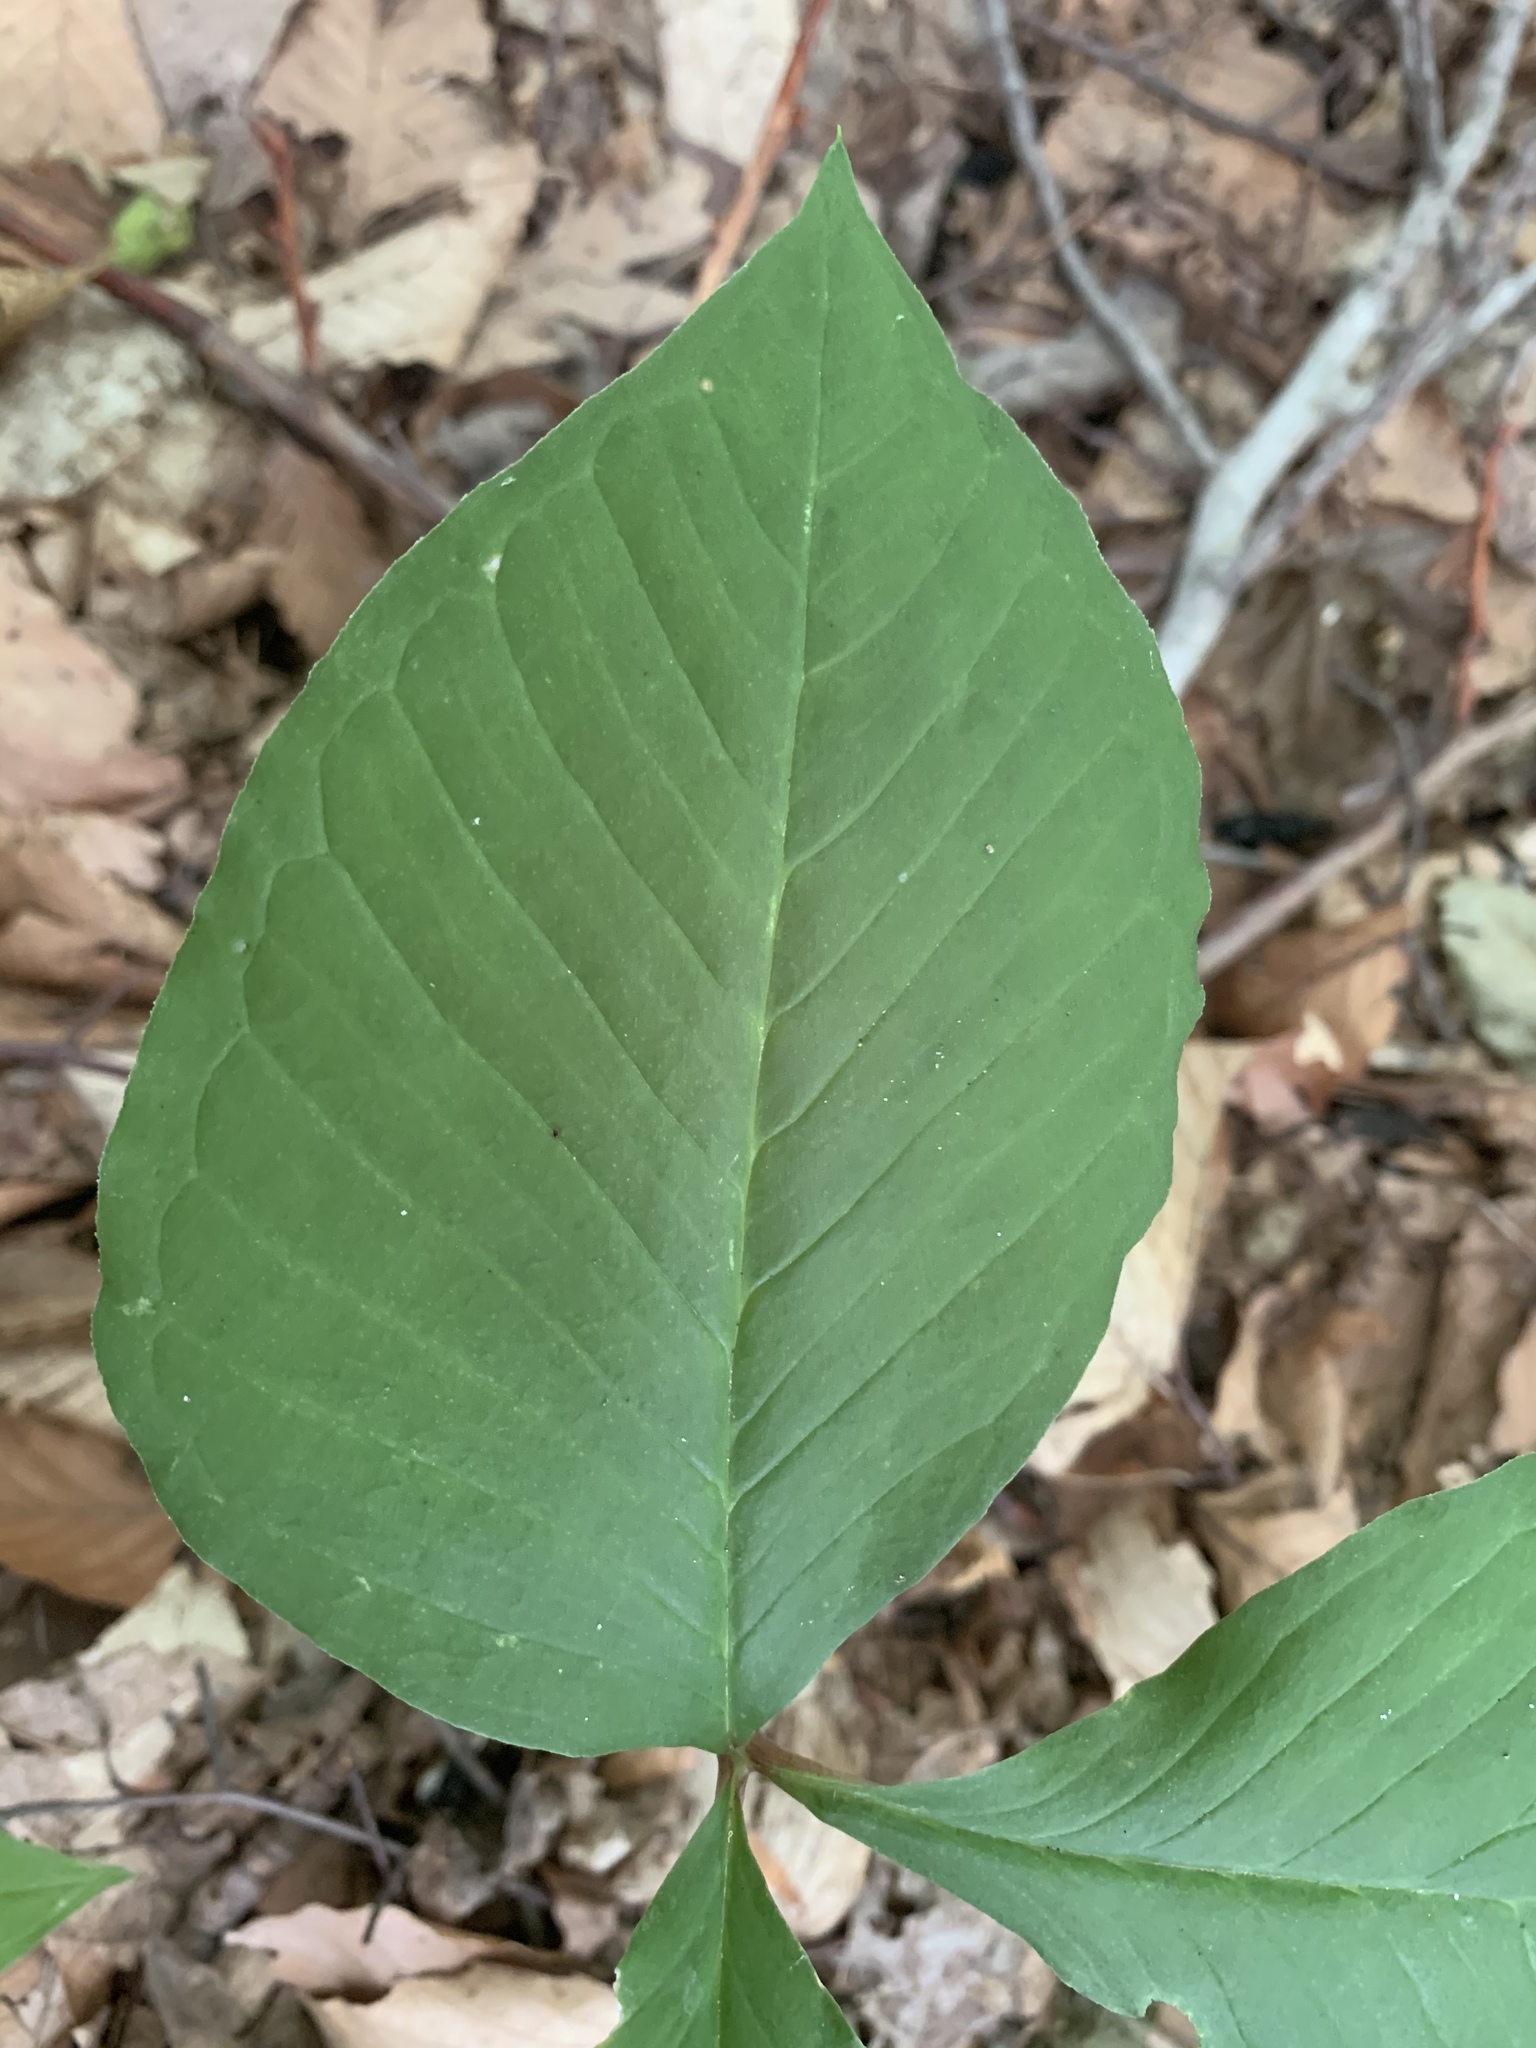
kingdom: Plantae
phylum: Tracheophyta
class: Liliopsida
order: Alismatales
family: Araceae
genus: Arisaema
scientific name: Arisaema triphyllum
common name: Jack-in-the-pulpit
